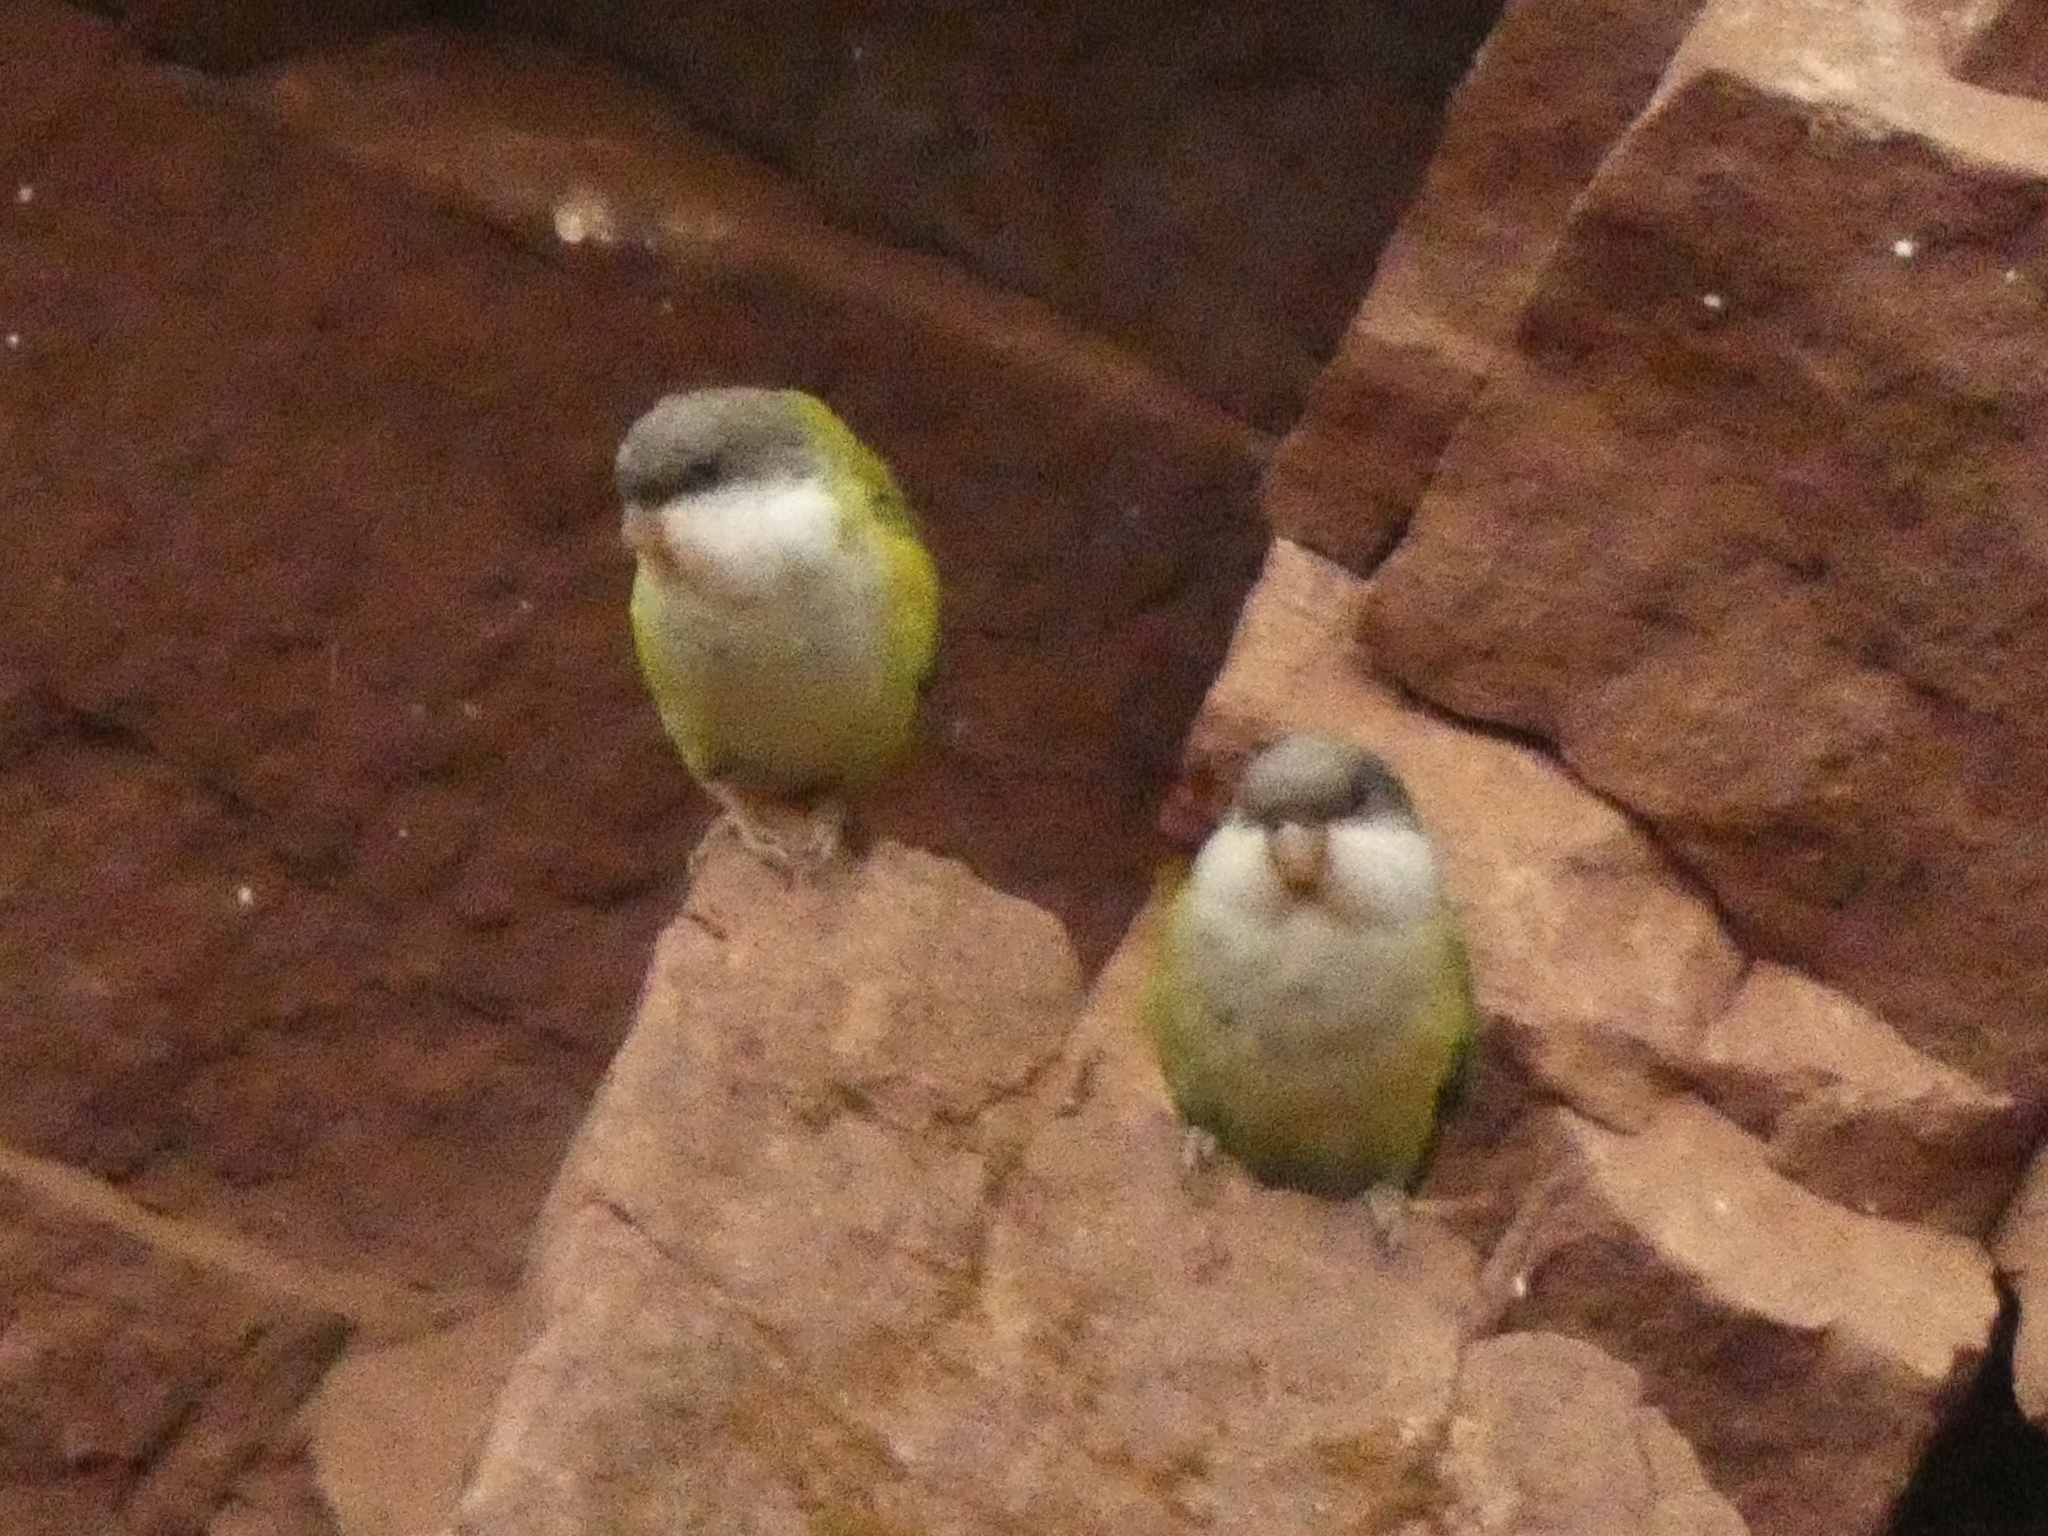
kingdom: Animalia
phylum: Chordata
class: Aves
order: Psittaciformes
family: Psittacidae
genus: Psilopsiagon
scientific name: Psilopsiagon aymara
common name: Grey-hooded parakeet
